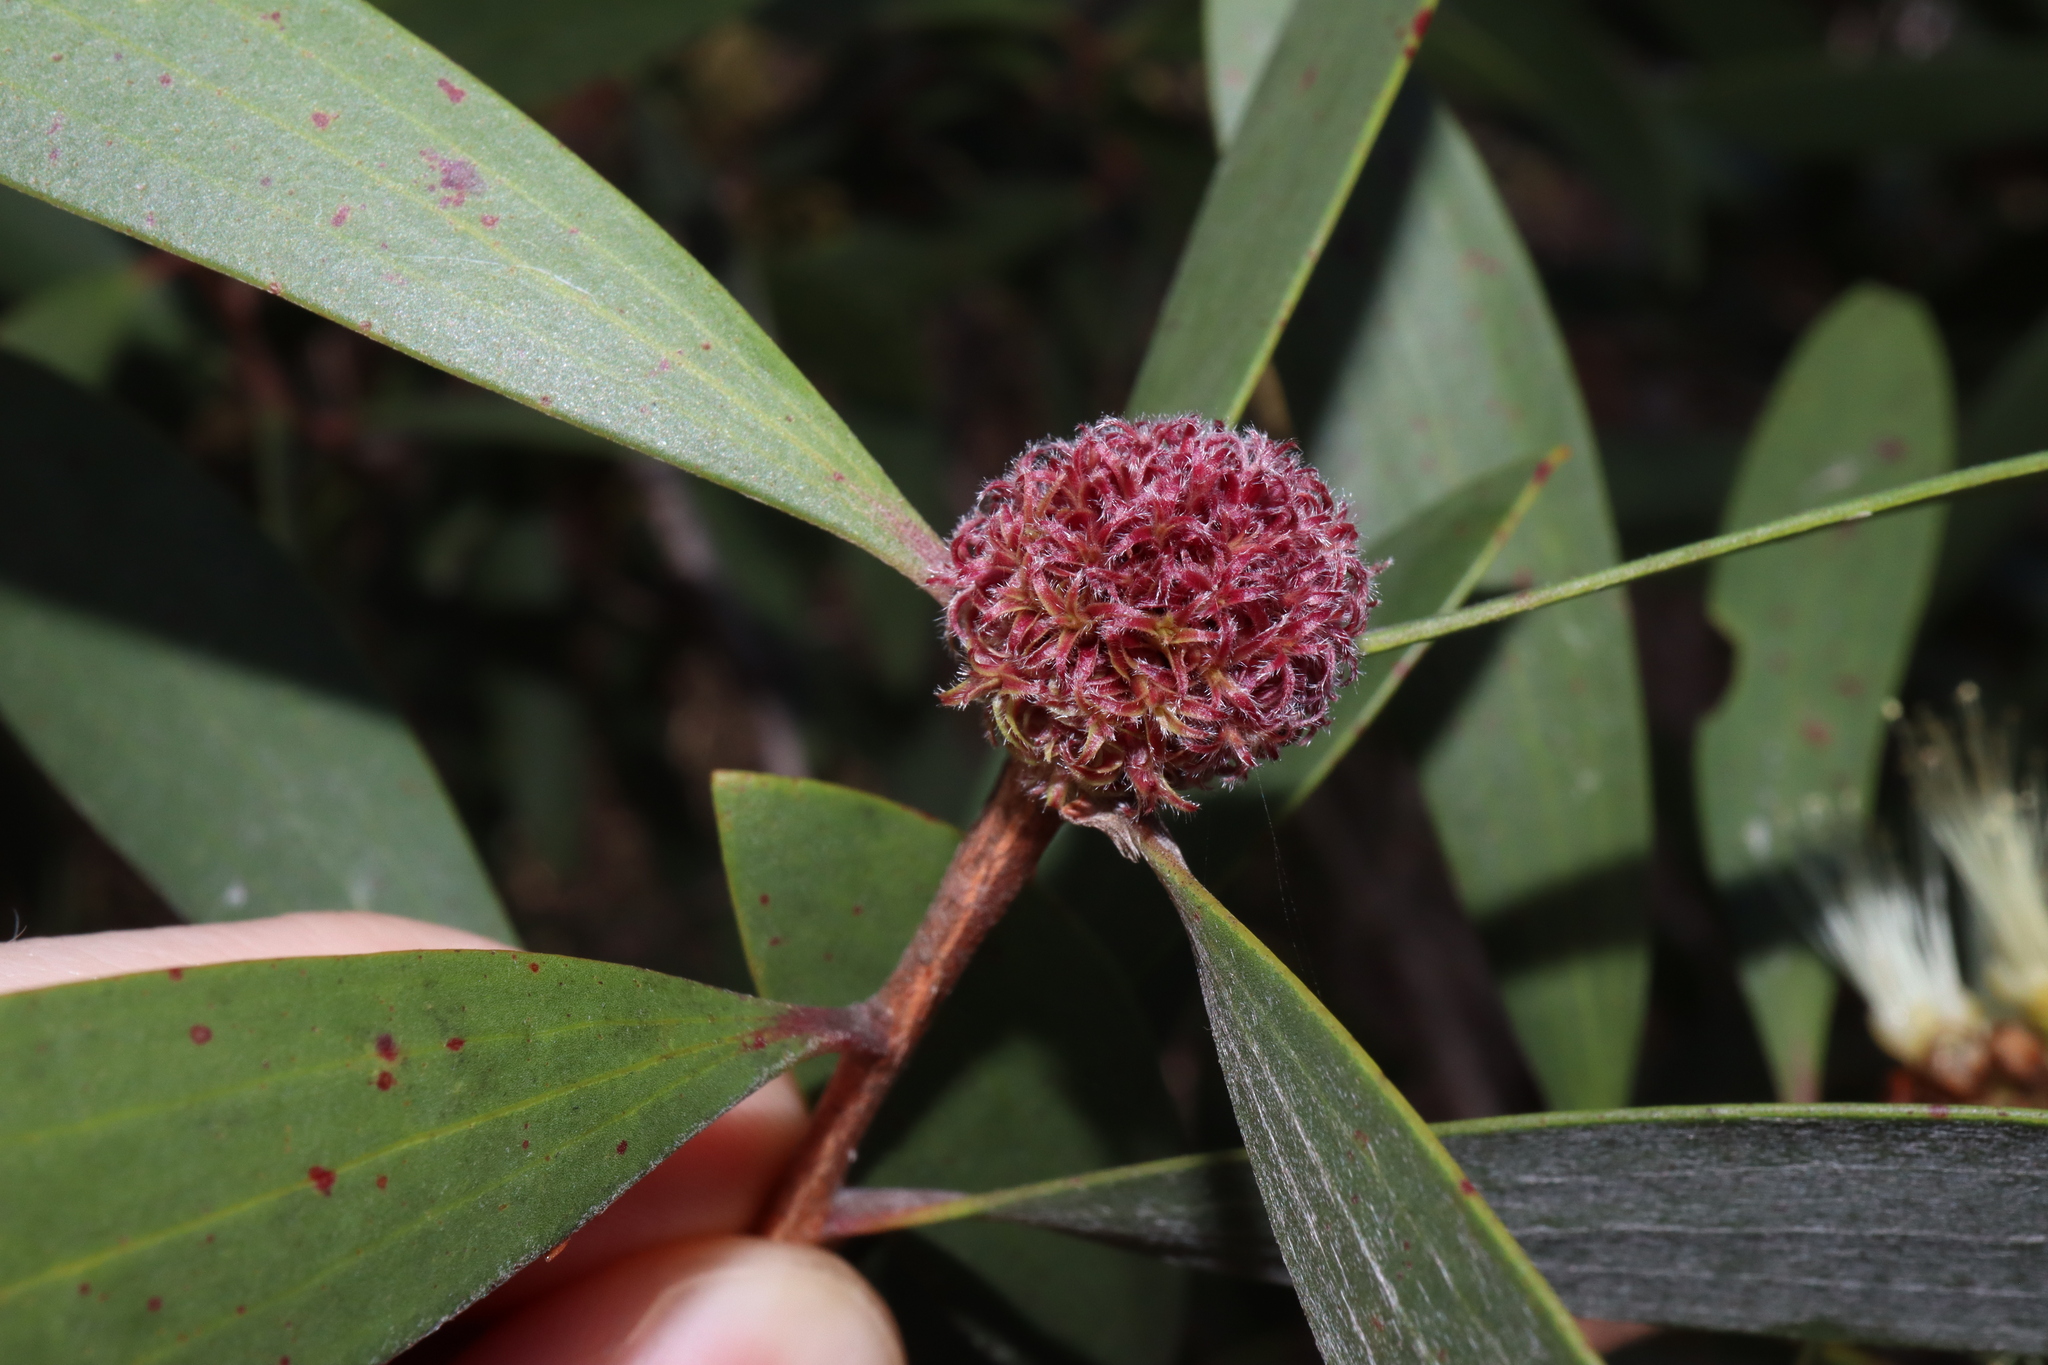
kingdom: Animalia
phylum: Arthropoda
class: Insecta
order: Hemiptera
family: Beesoniidae
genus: Beesonia
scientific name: Beesonia ferrugineus
